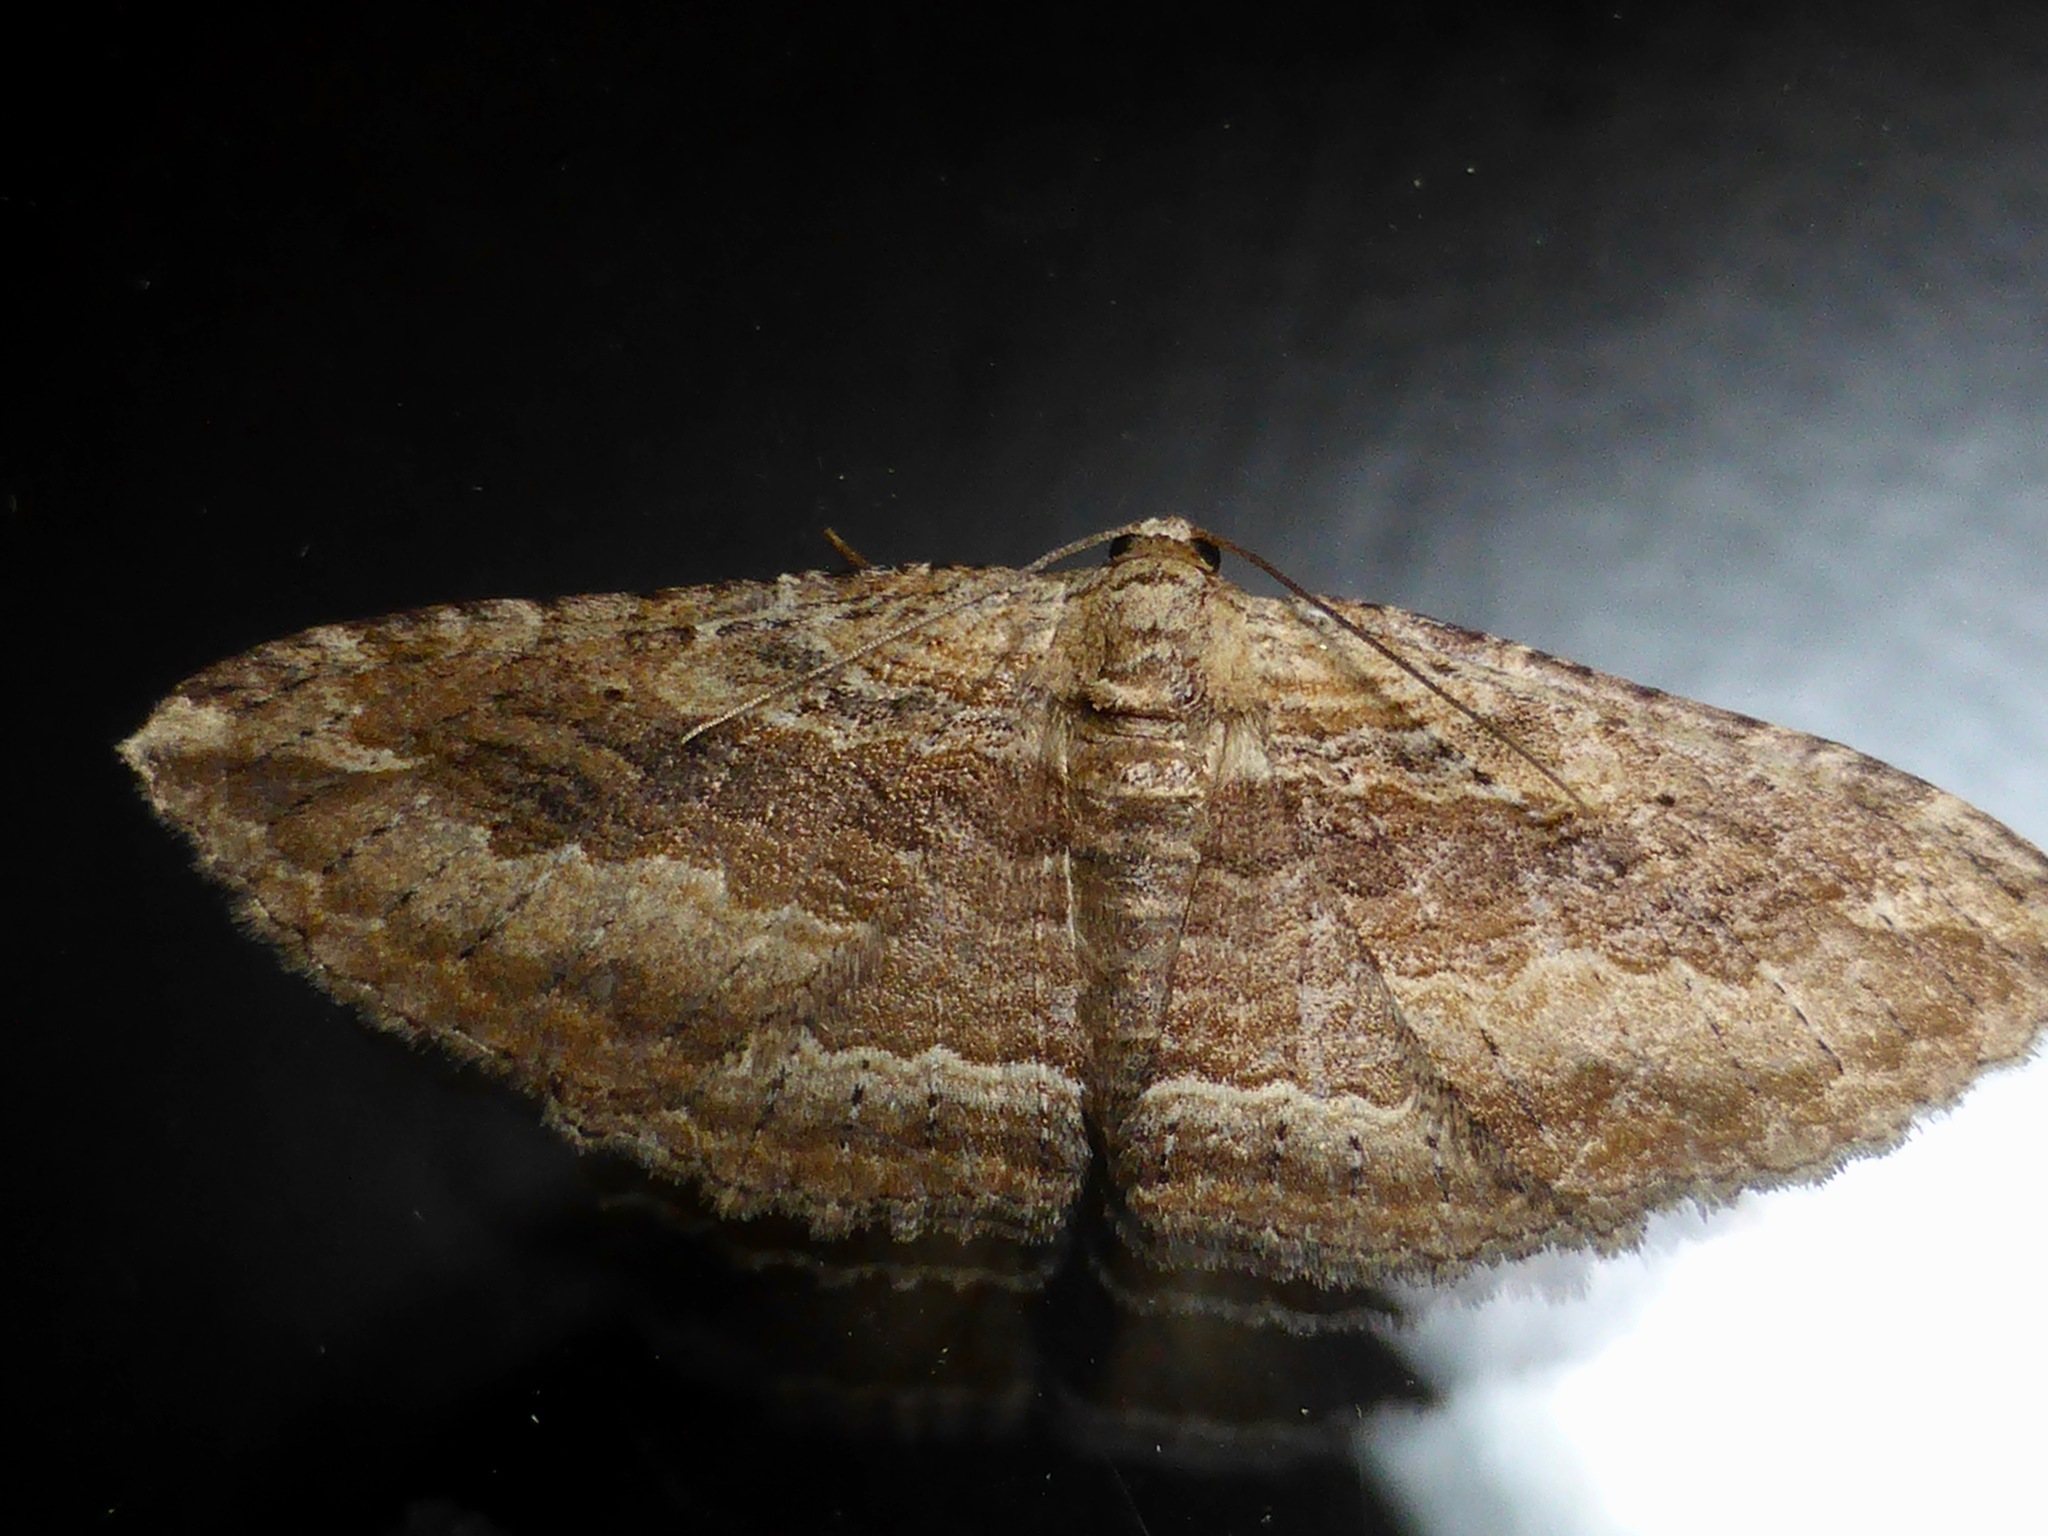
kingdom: Animalia
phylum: Arthropoda
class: Insecta
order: Lepidoptera
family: Geometridae
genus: Austrocidaria
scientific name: Austrocidaria gobiata
